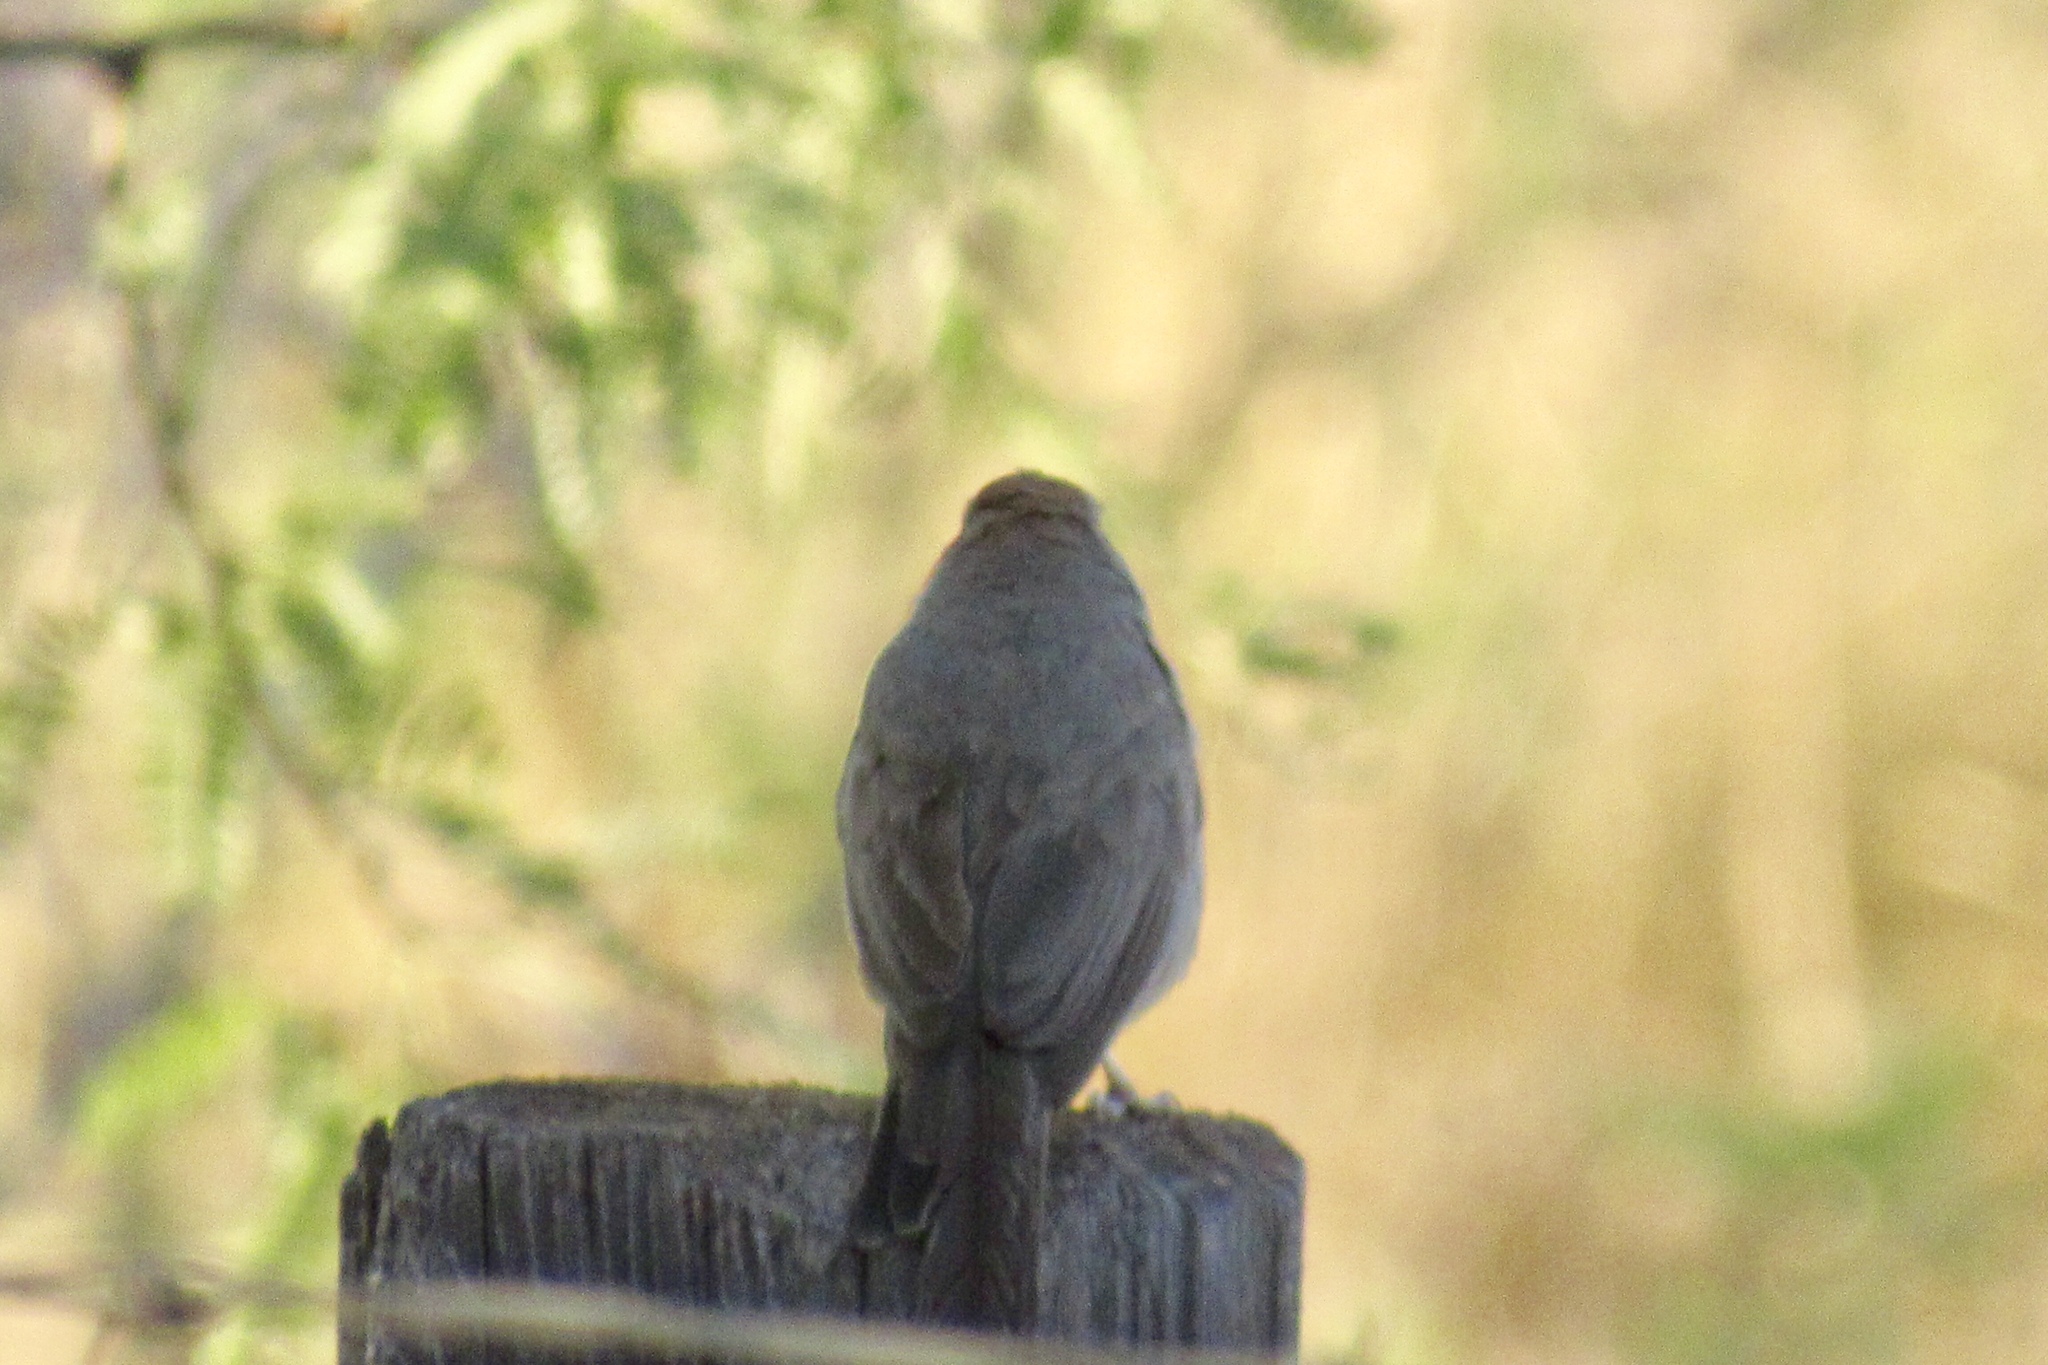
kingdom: Animalia
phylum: Chordata
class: Aves
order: Passeriformes
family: Passerellidae
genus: Melozone
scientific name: Melozone fusca
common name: Canyon towhee
